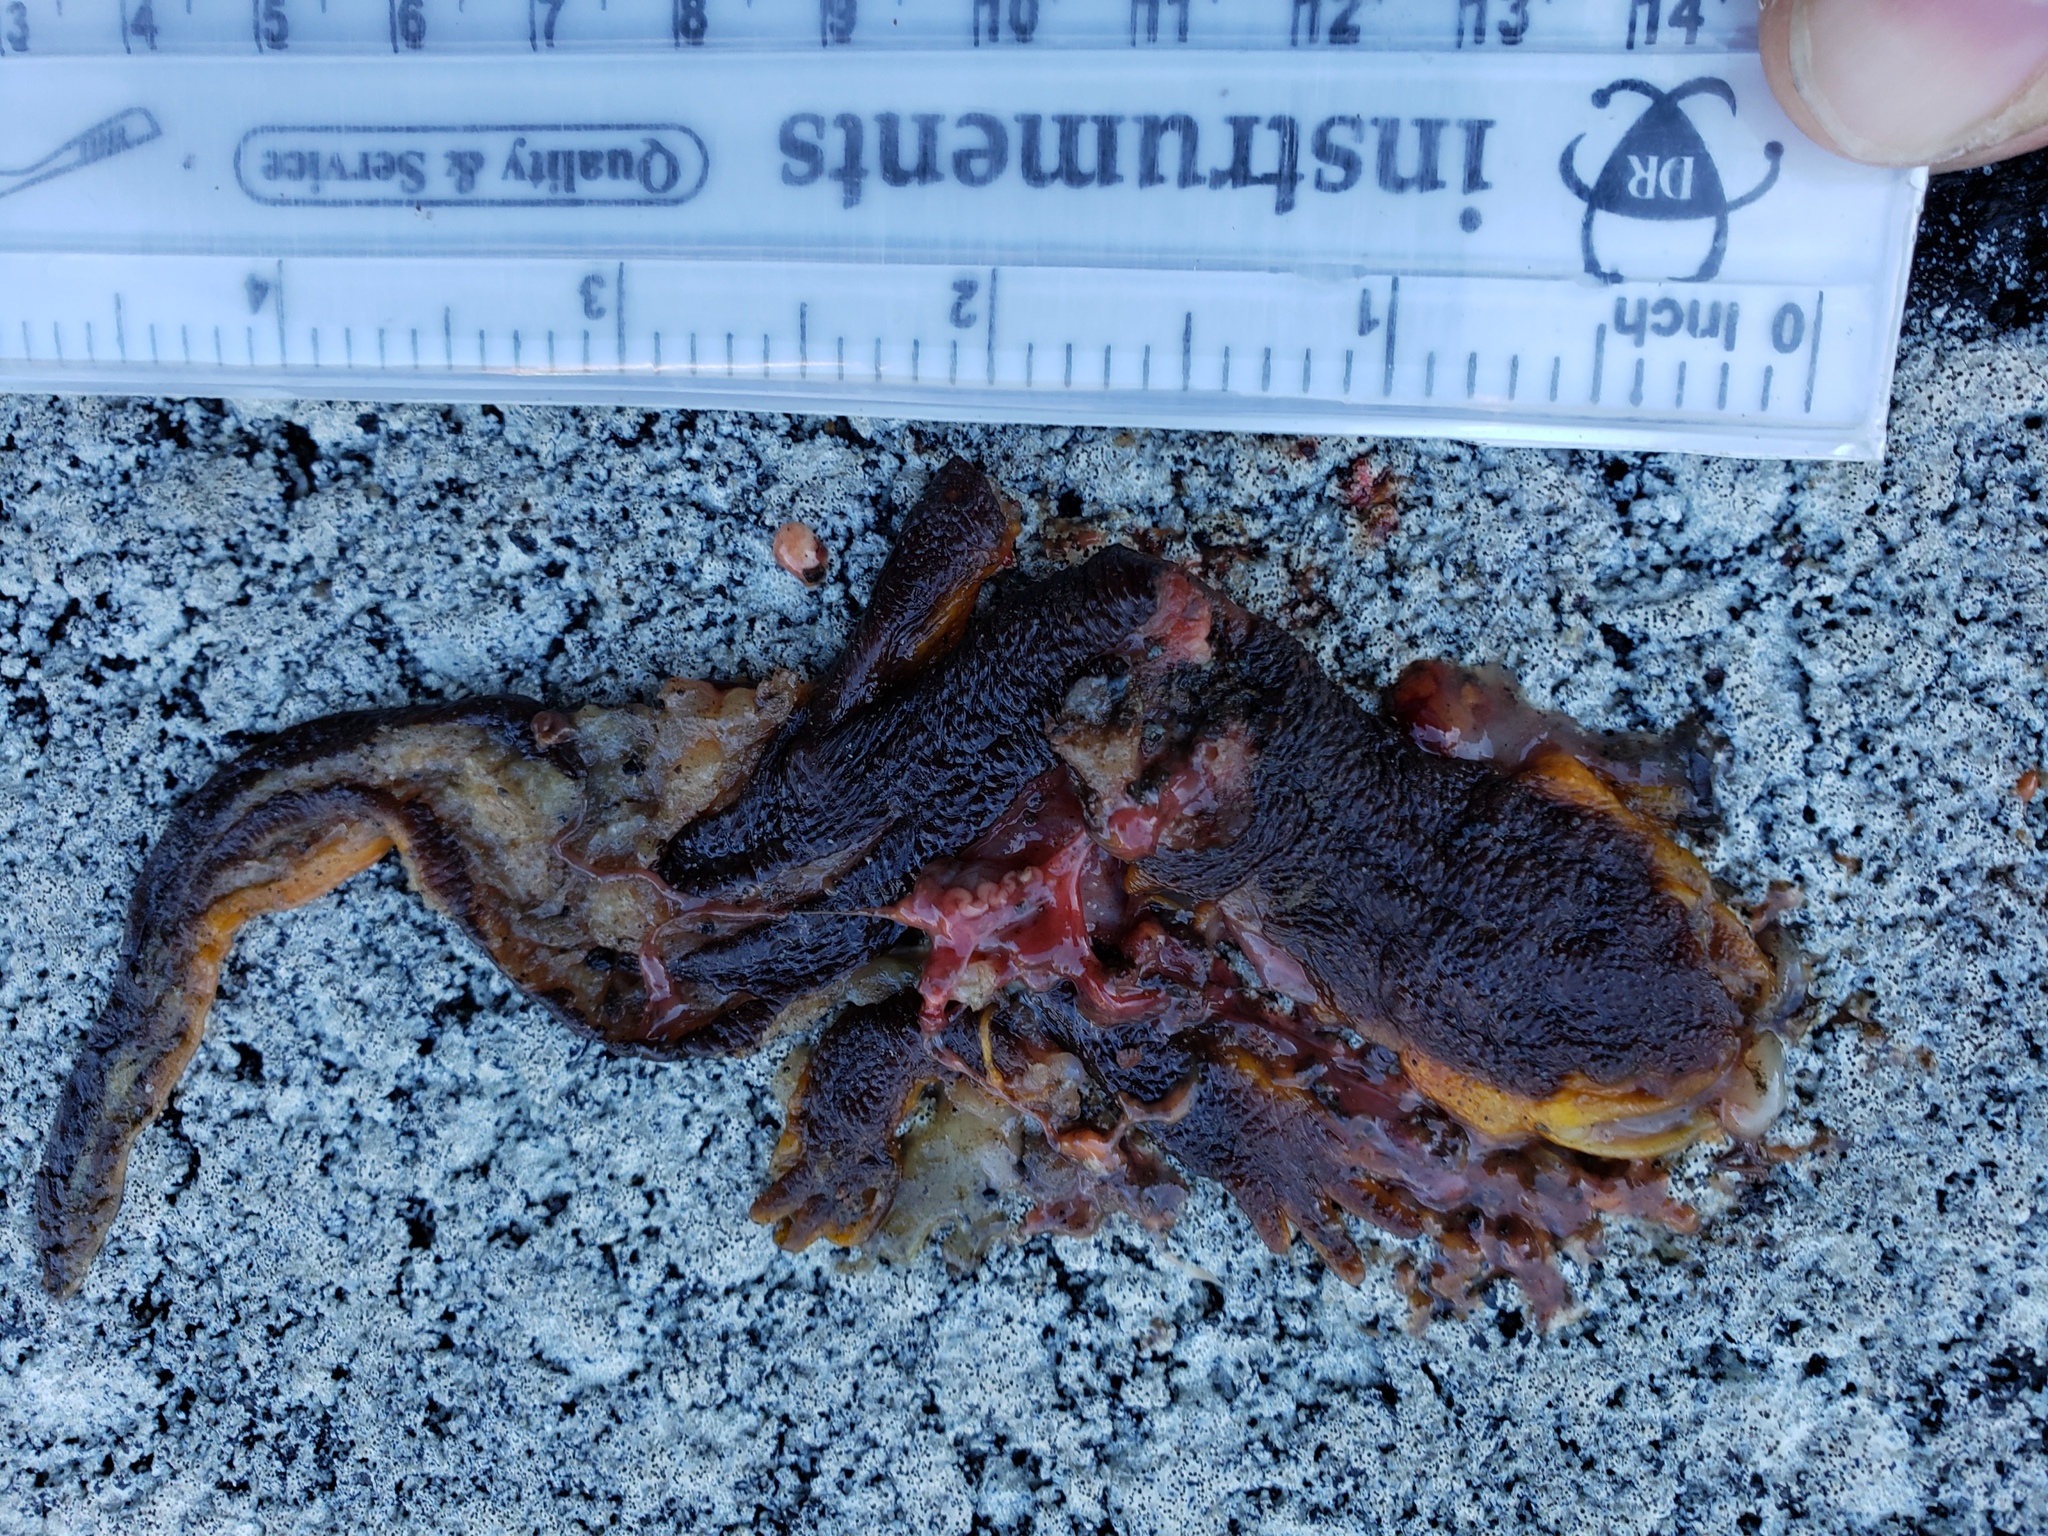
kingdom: Animalia
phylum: Chordata
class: Amphibia
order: Caudata
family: Salamandridae
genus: Taricha
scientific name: Taricha
